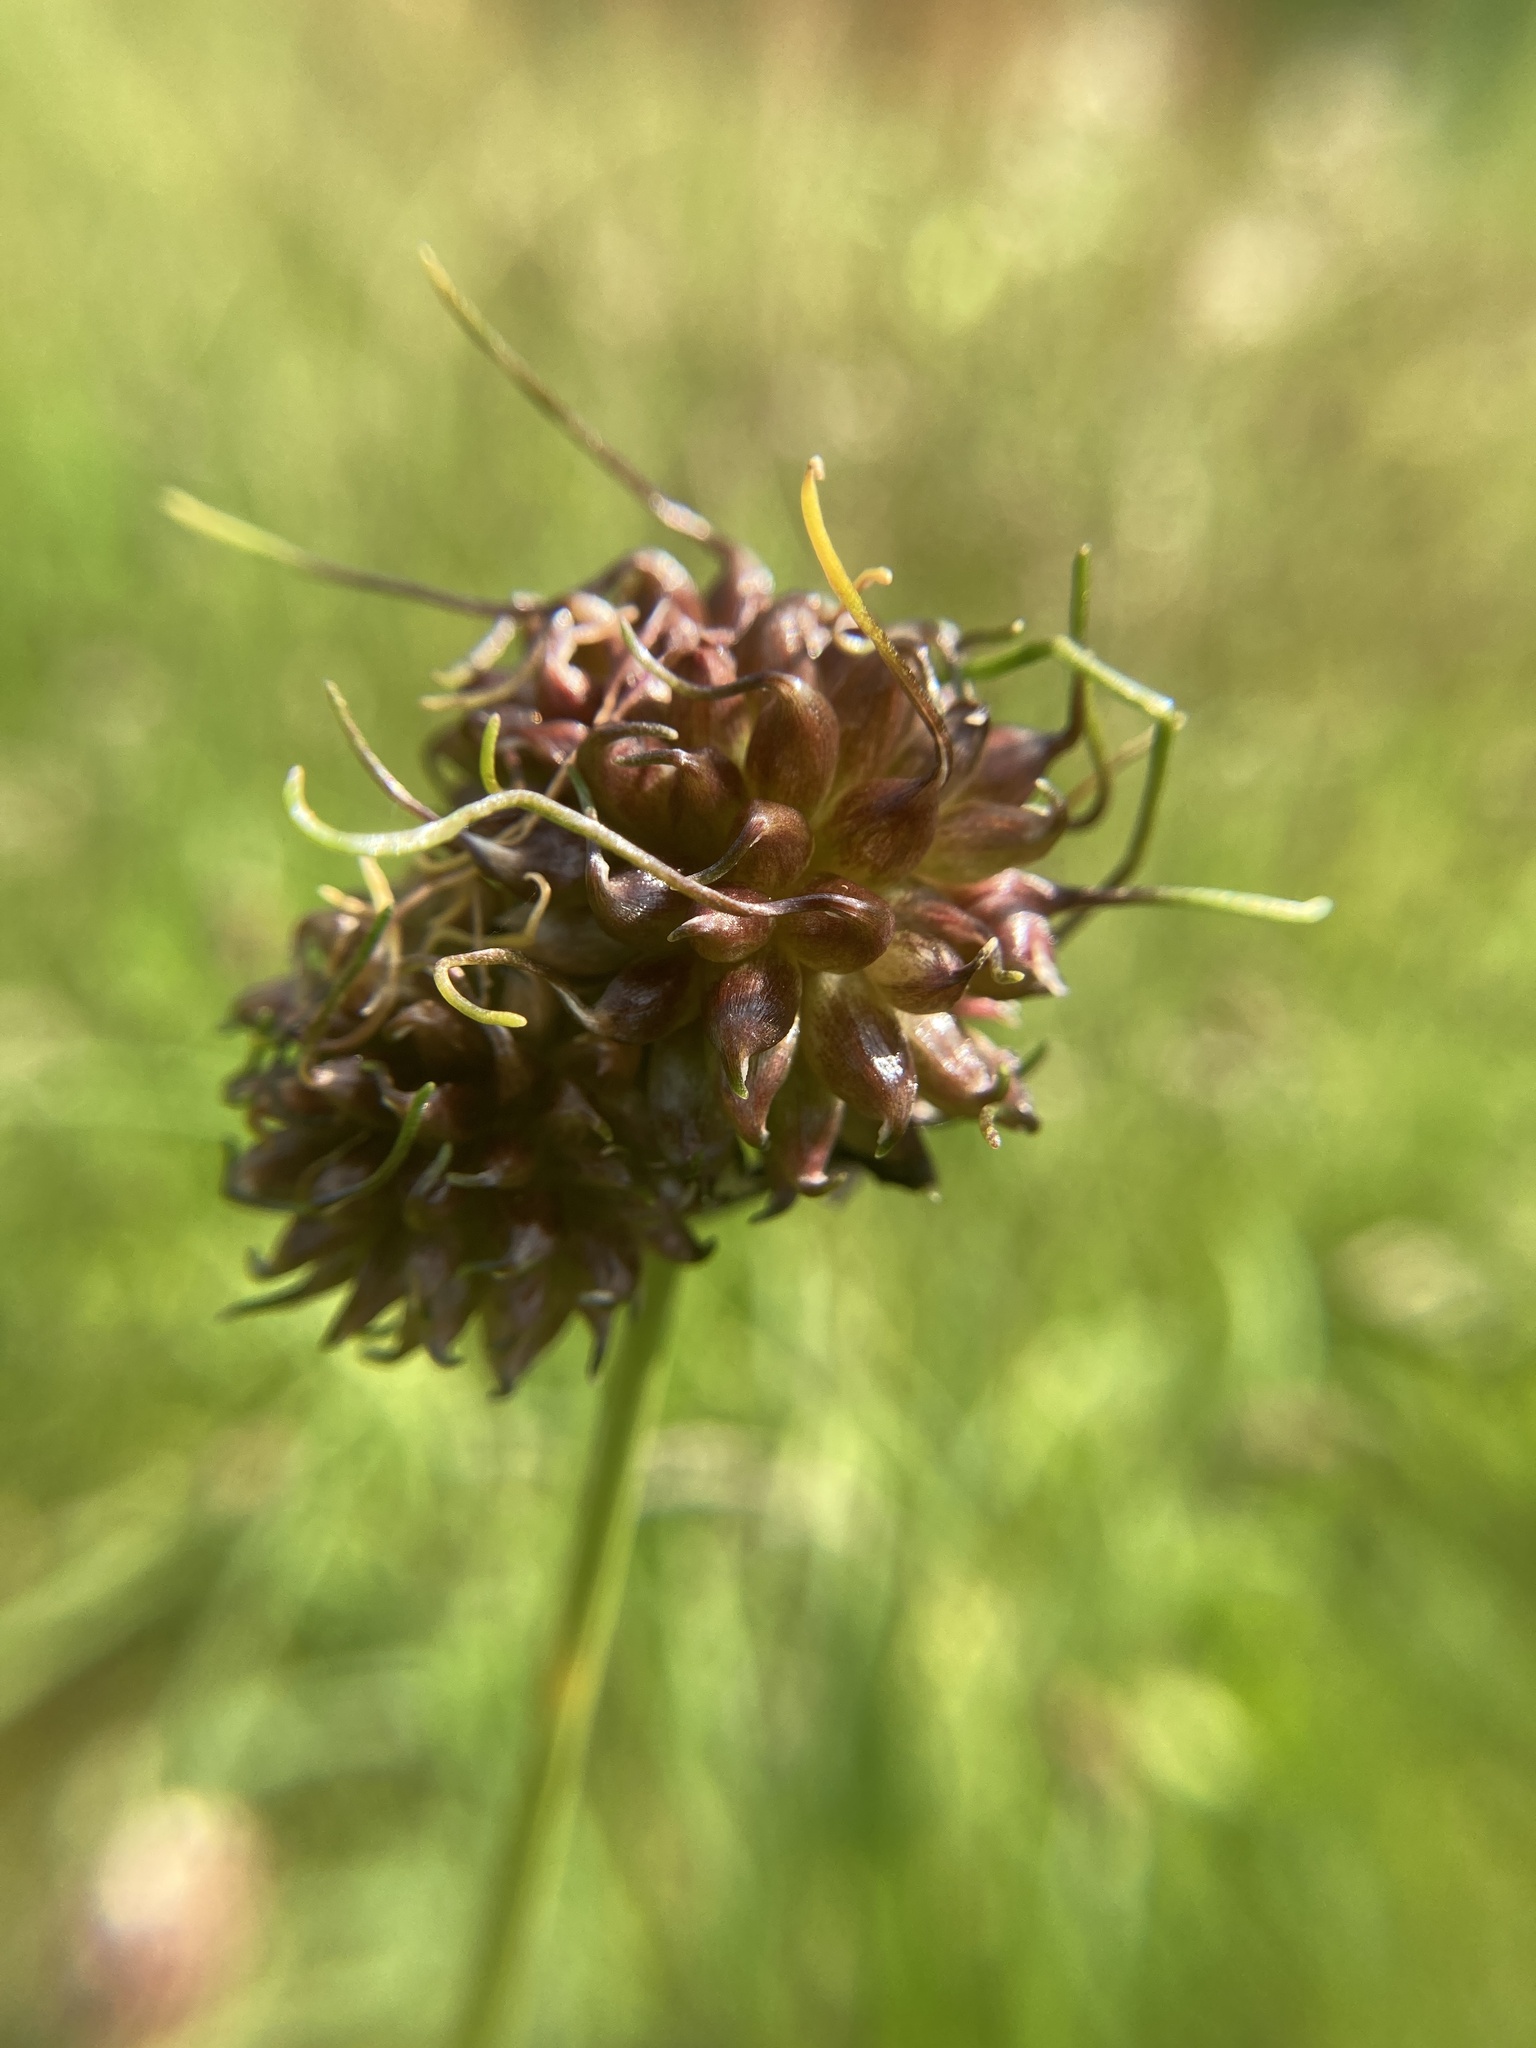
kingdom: Plantae
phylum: Tracheophyta
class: Liliopsida
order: Asparagales
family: Amaryllidaceae
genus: Allium
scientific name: Allium vineale
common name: Crow garlic
